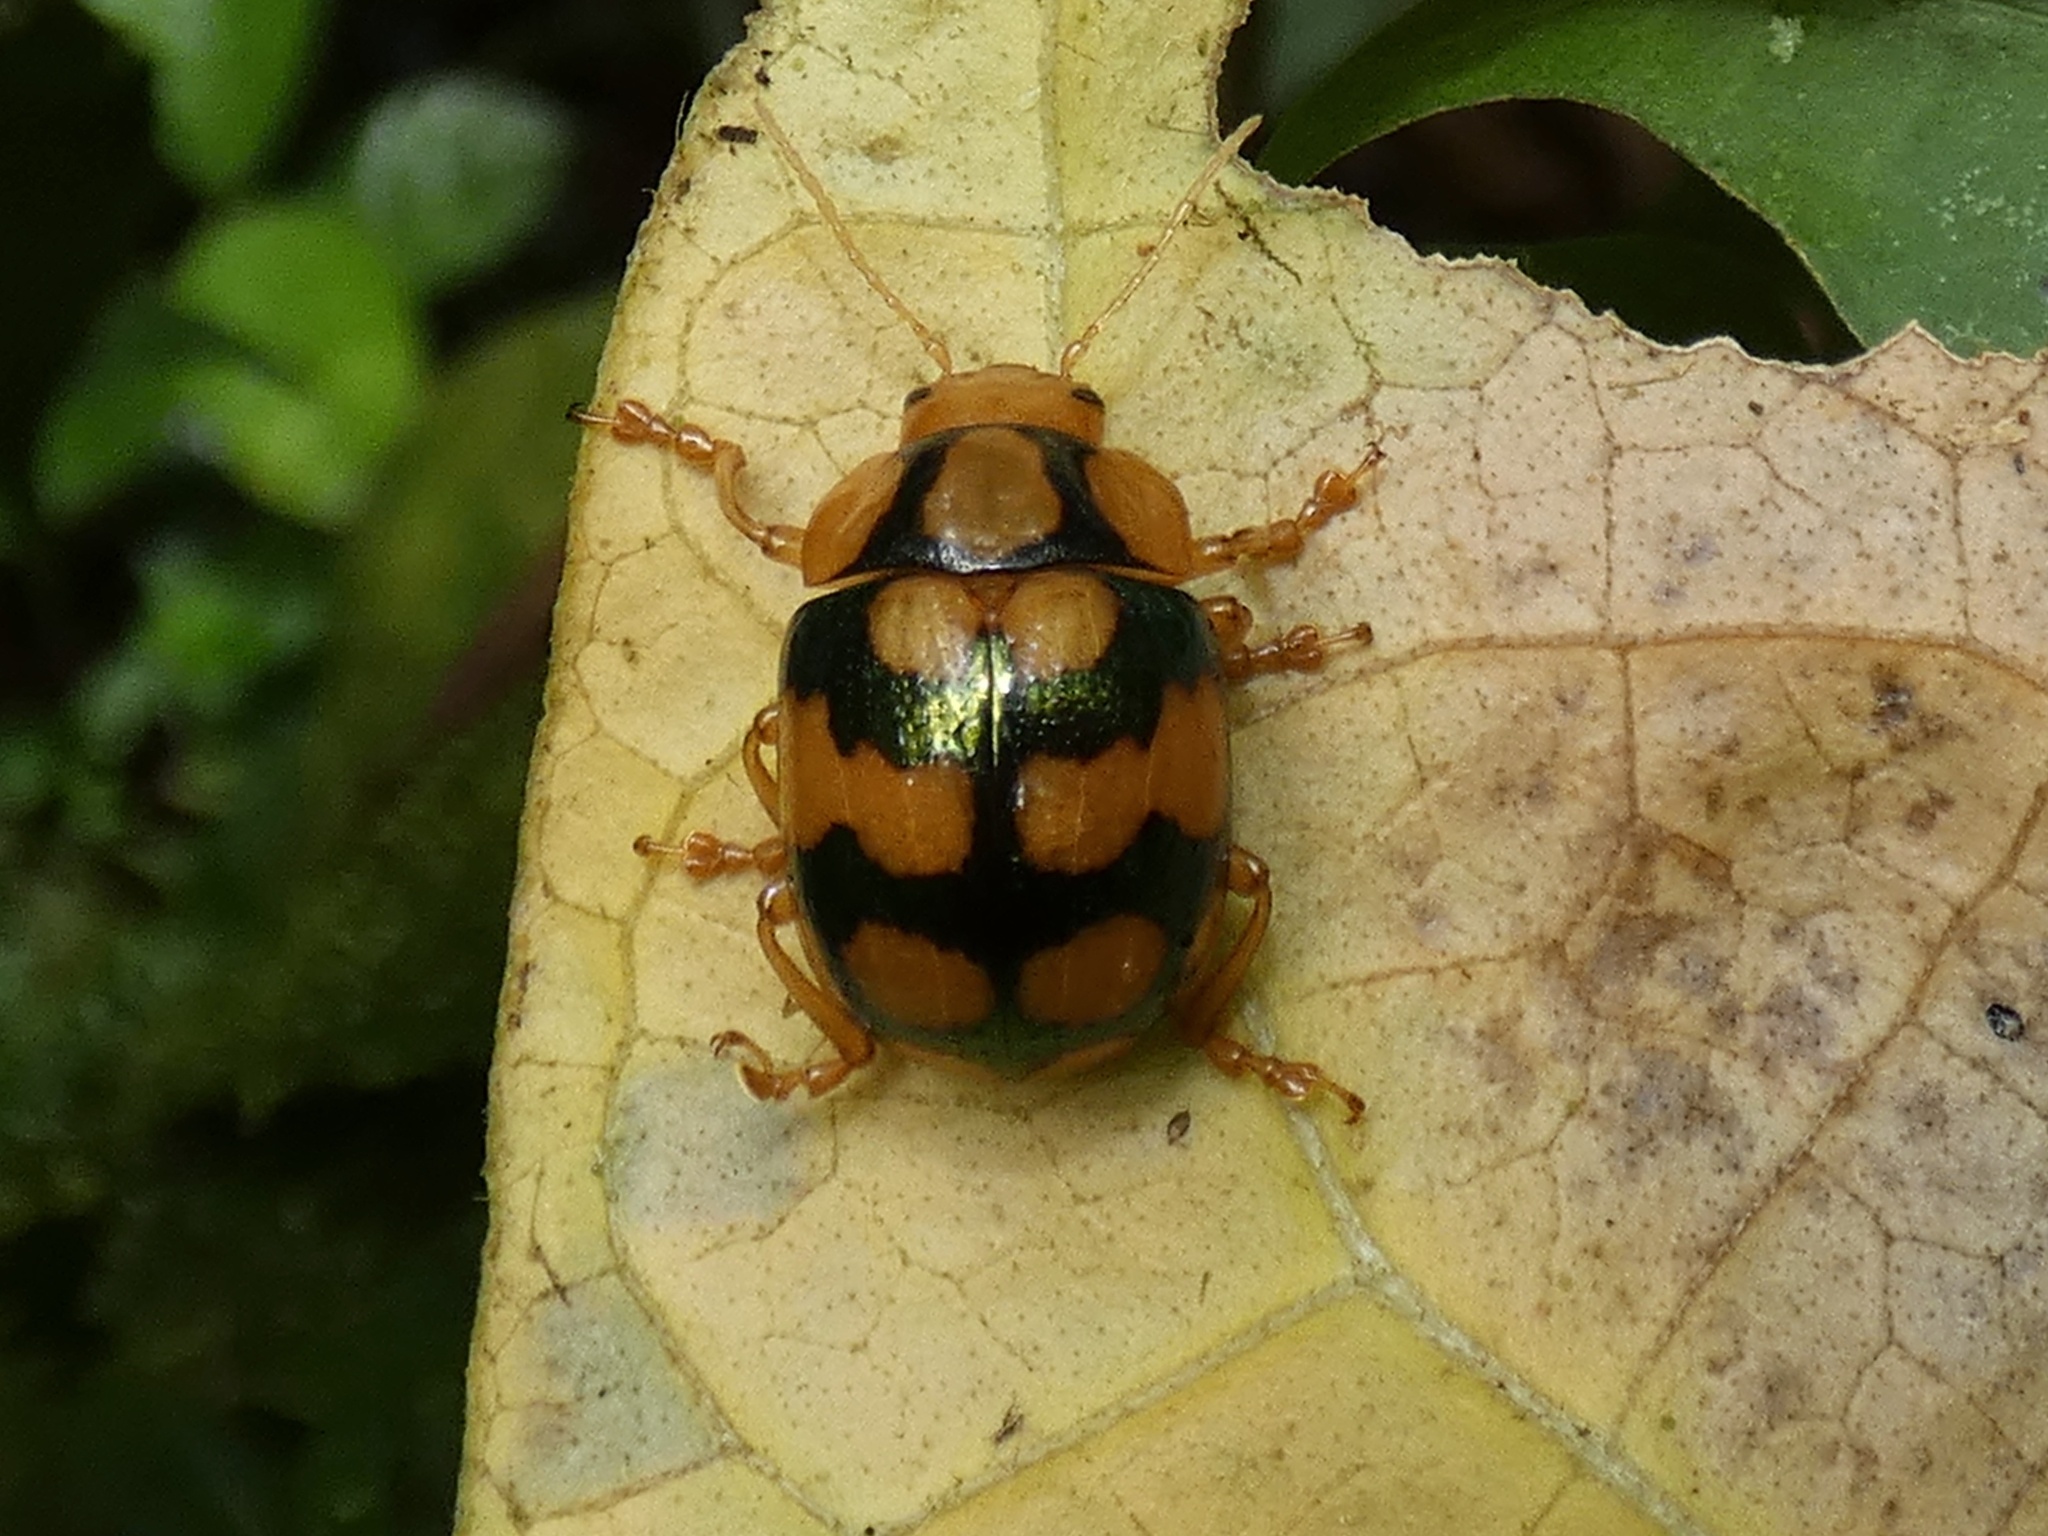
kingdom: Animalia
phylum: Arthropoda
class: Insecta
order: Coleoptera
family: Chrysomelidae
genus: Platyphora
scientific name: Platyphora
